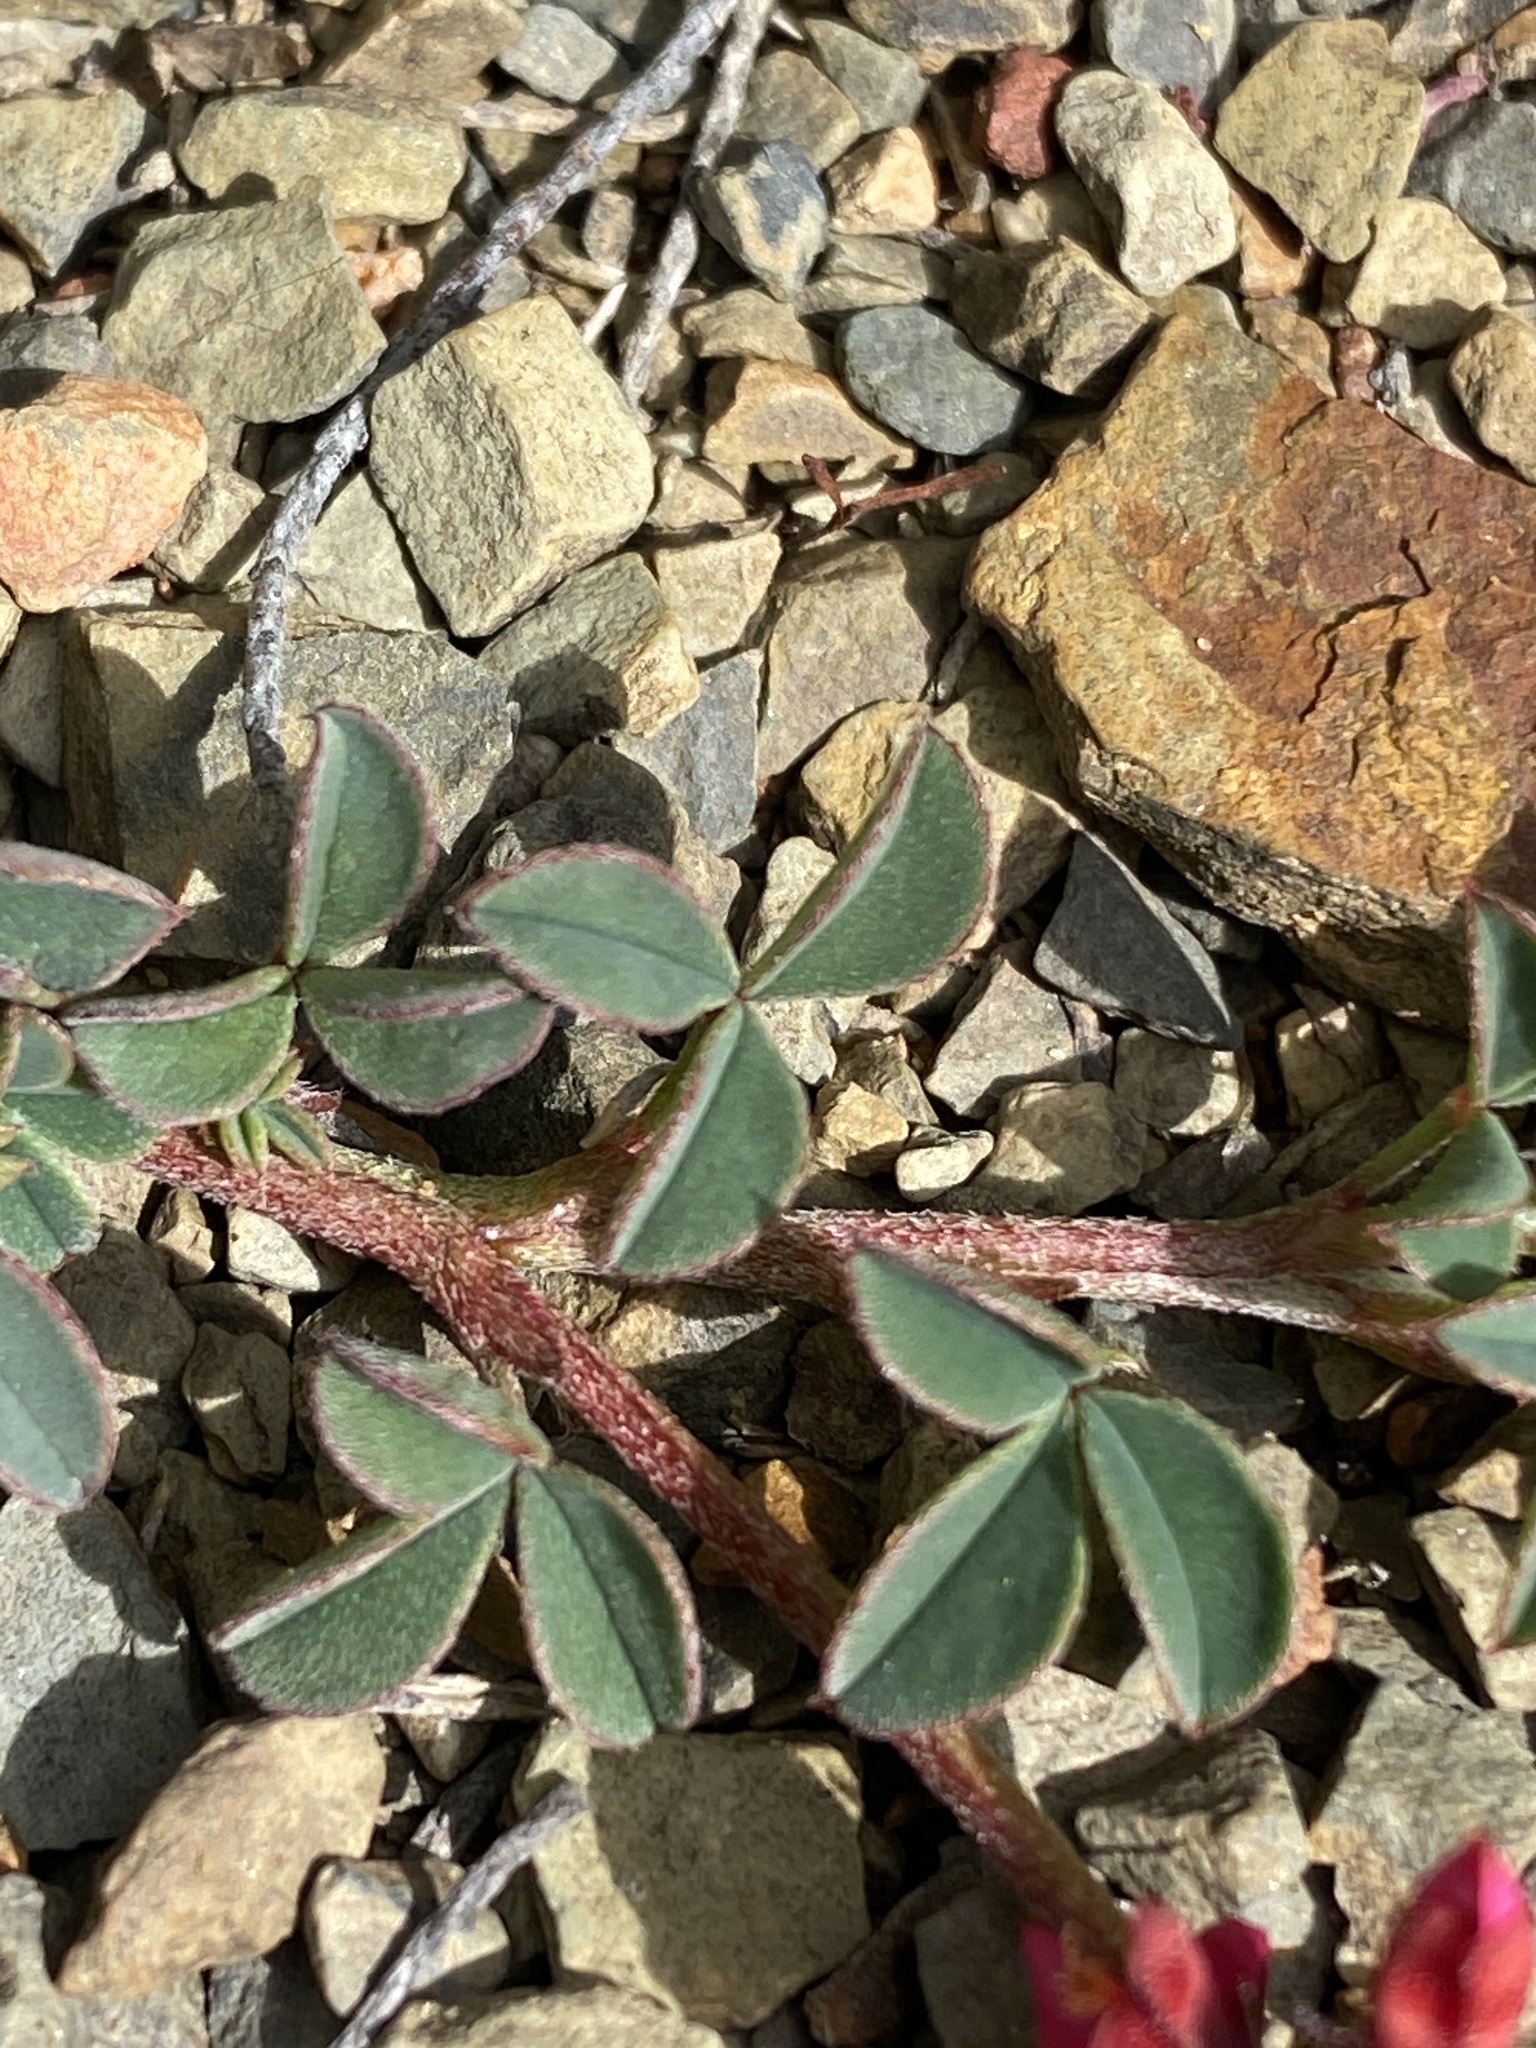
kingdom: Plantae
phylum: Tracheophyta
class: Magnoliopsida
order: Fabales
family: Fabaceae
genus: Indigofera
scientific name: Indigofera
